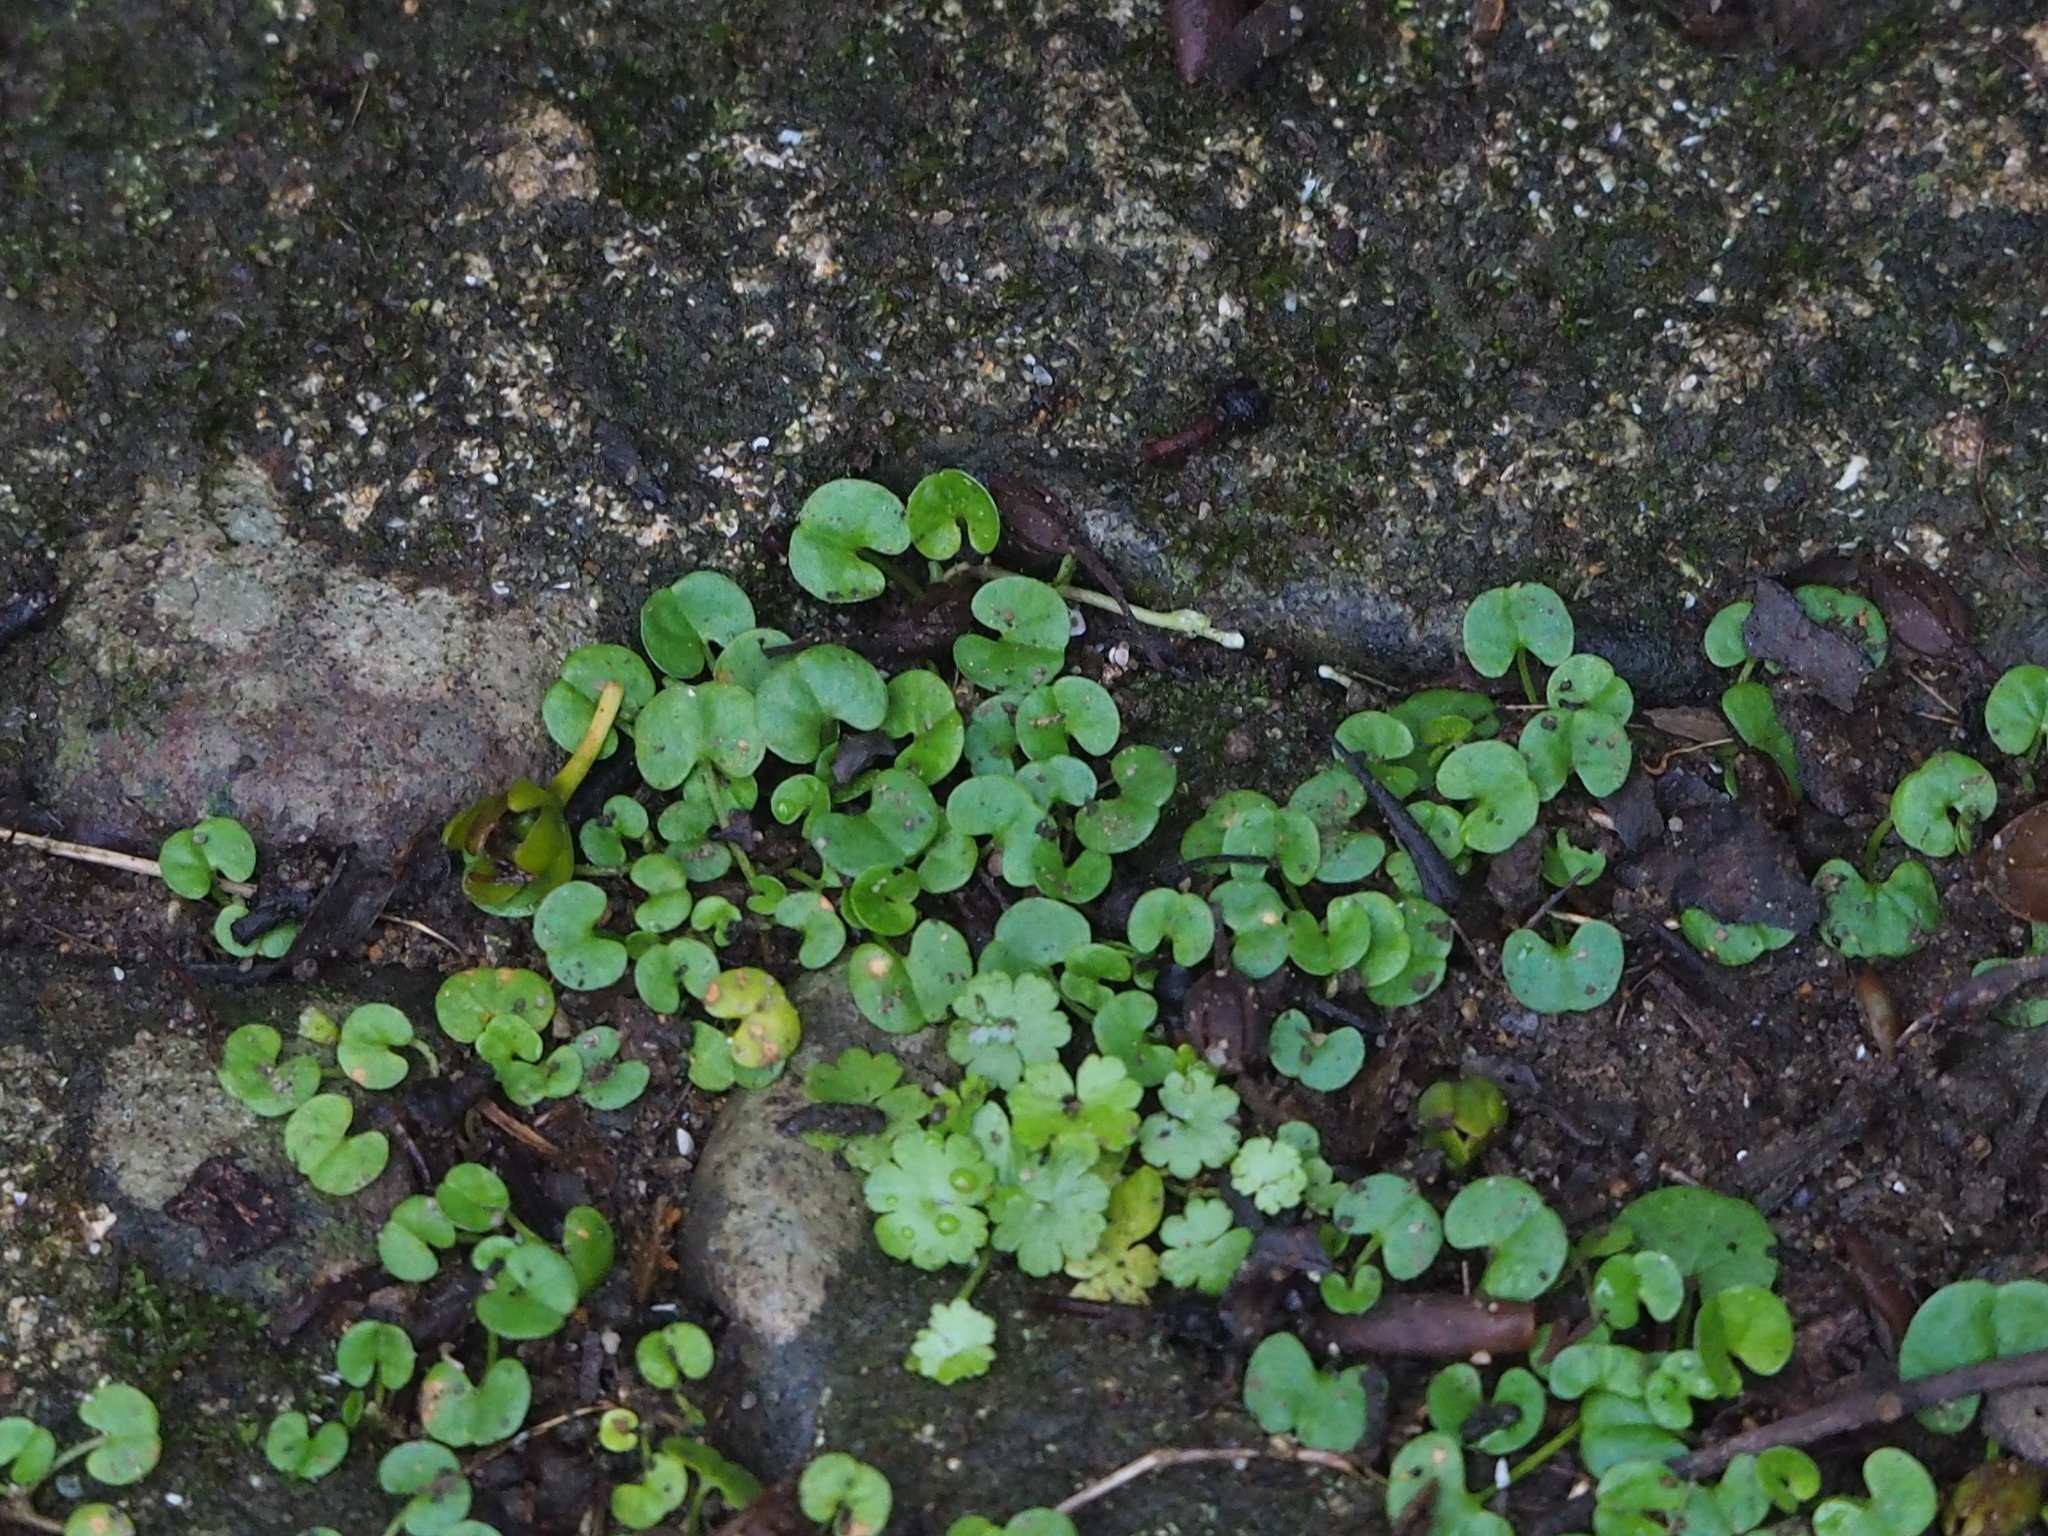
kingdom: Plantae
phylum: Tracheophyta
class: Magnoliopsida
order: Solanales
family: Convolvulaceae
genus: Dichondra
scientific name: Dichondra micrantha
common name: Kidneyweed
